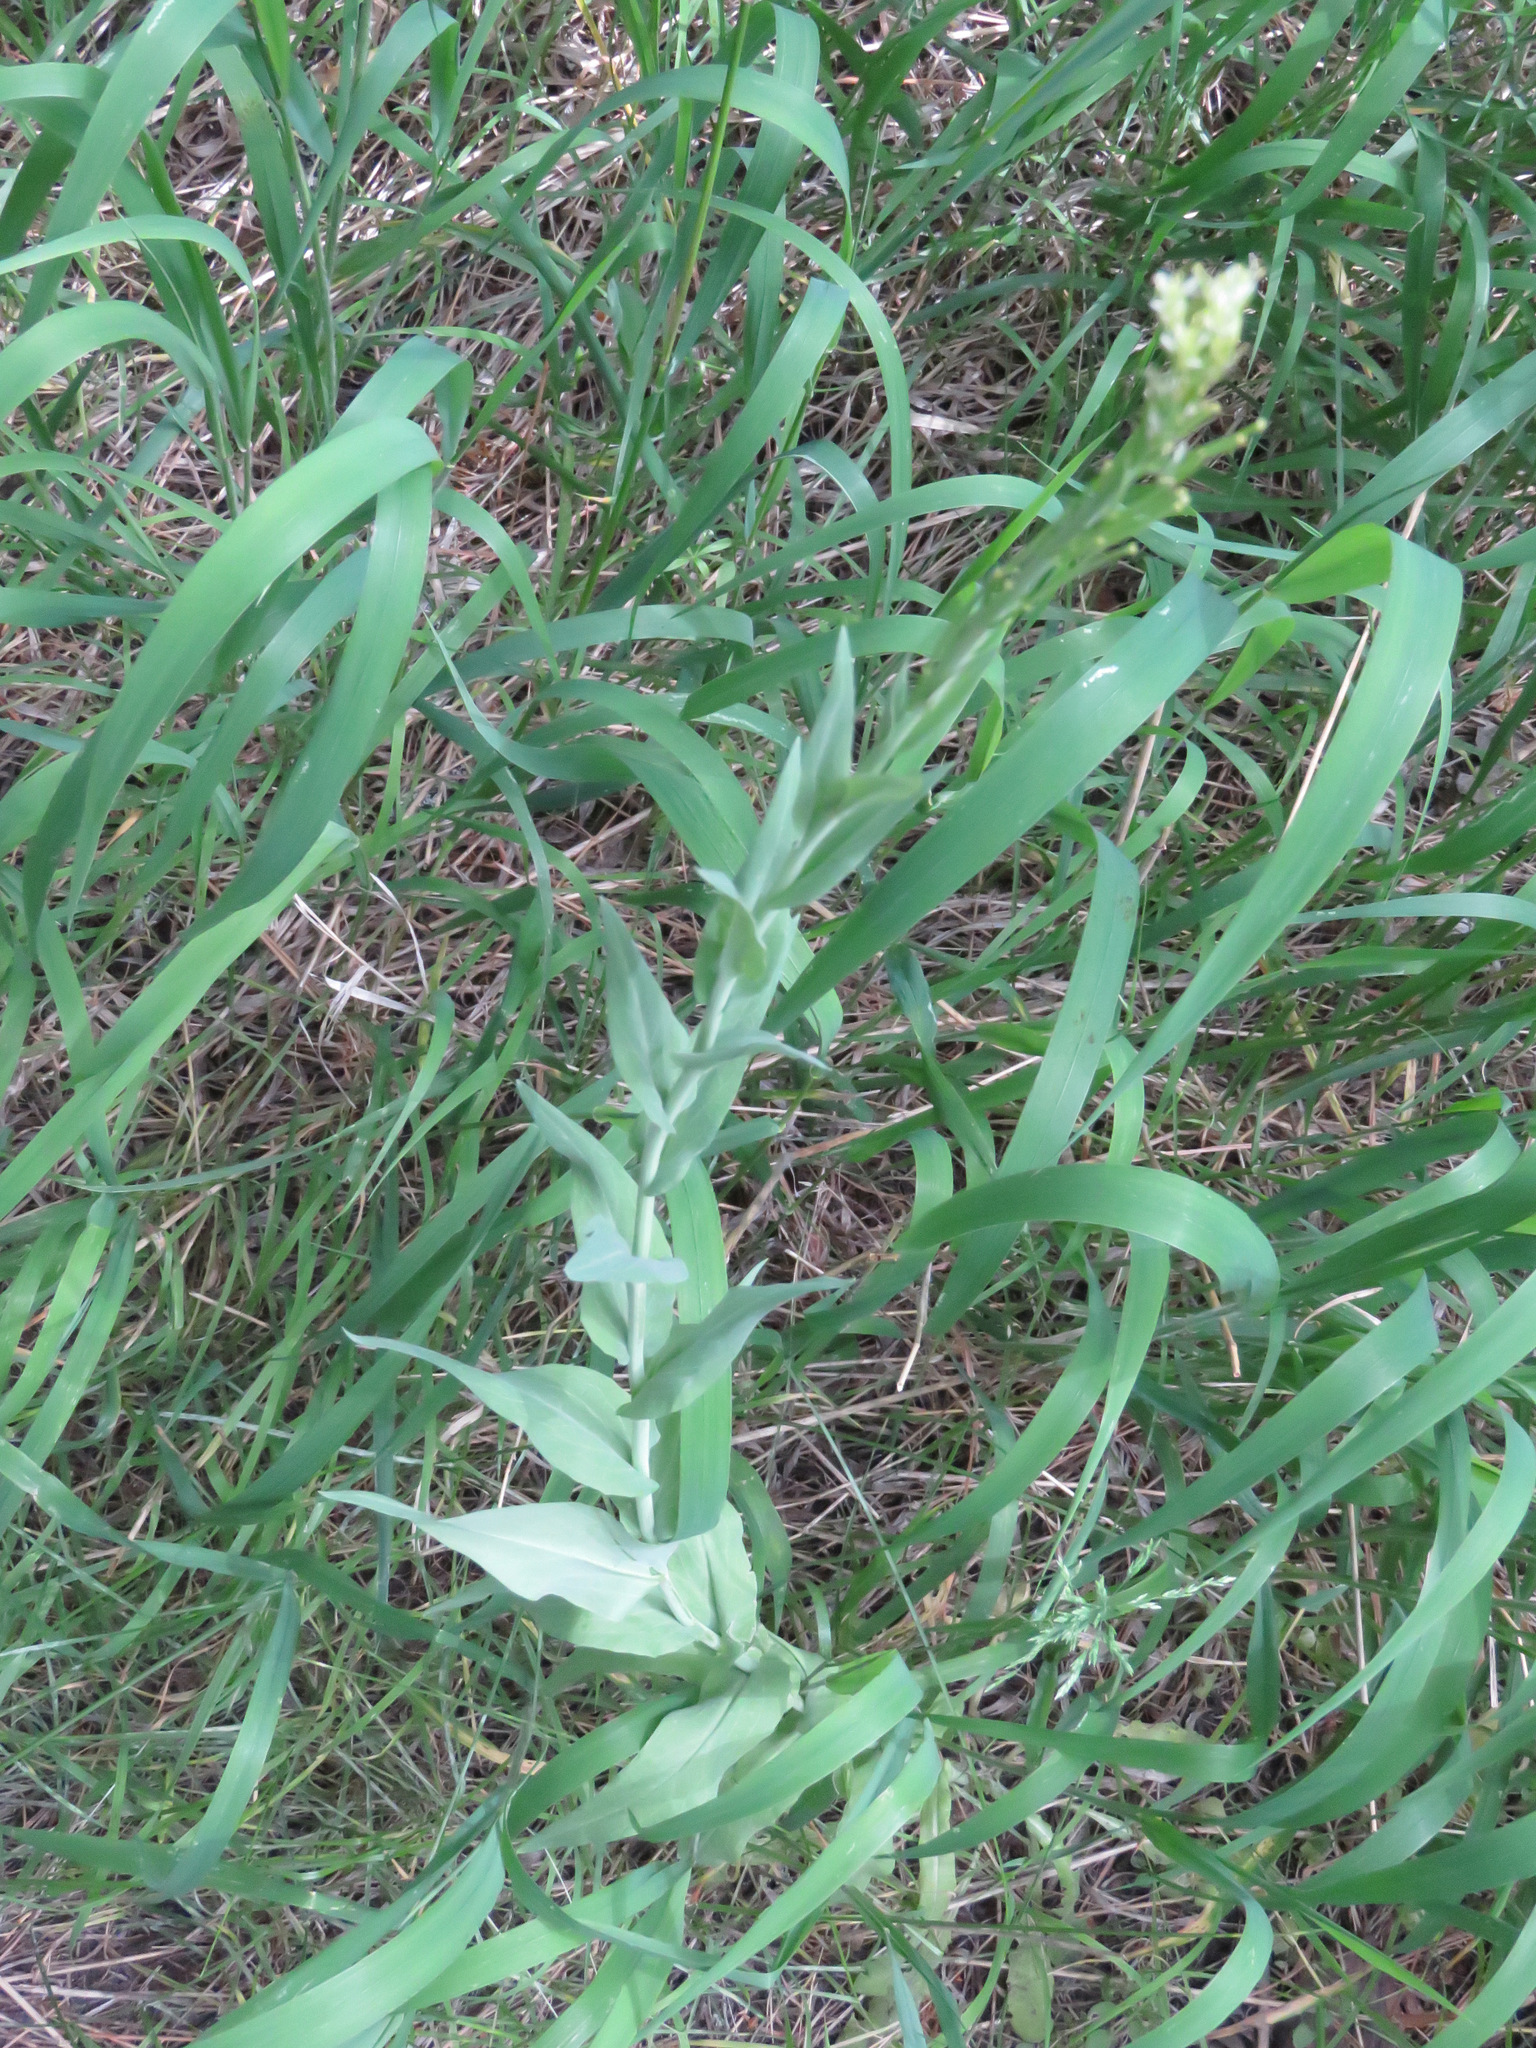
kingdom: Plantae
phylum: Tracheophyta
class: Magnoliopsida
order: Brassicales
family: Brassicaceae
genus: Turritis
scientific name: Turritis glabra
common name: Tower rockcress
